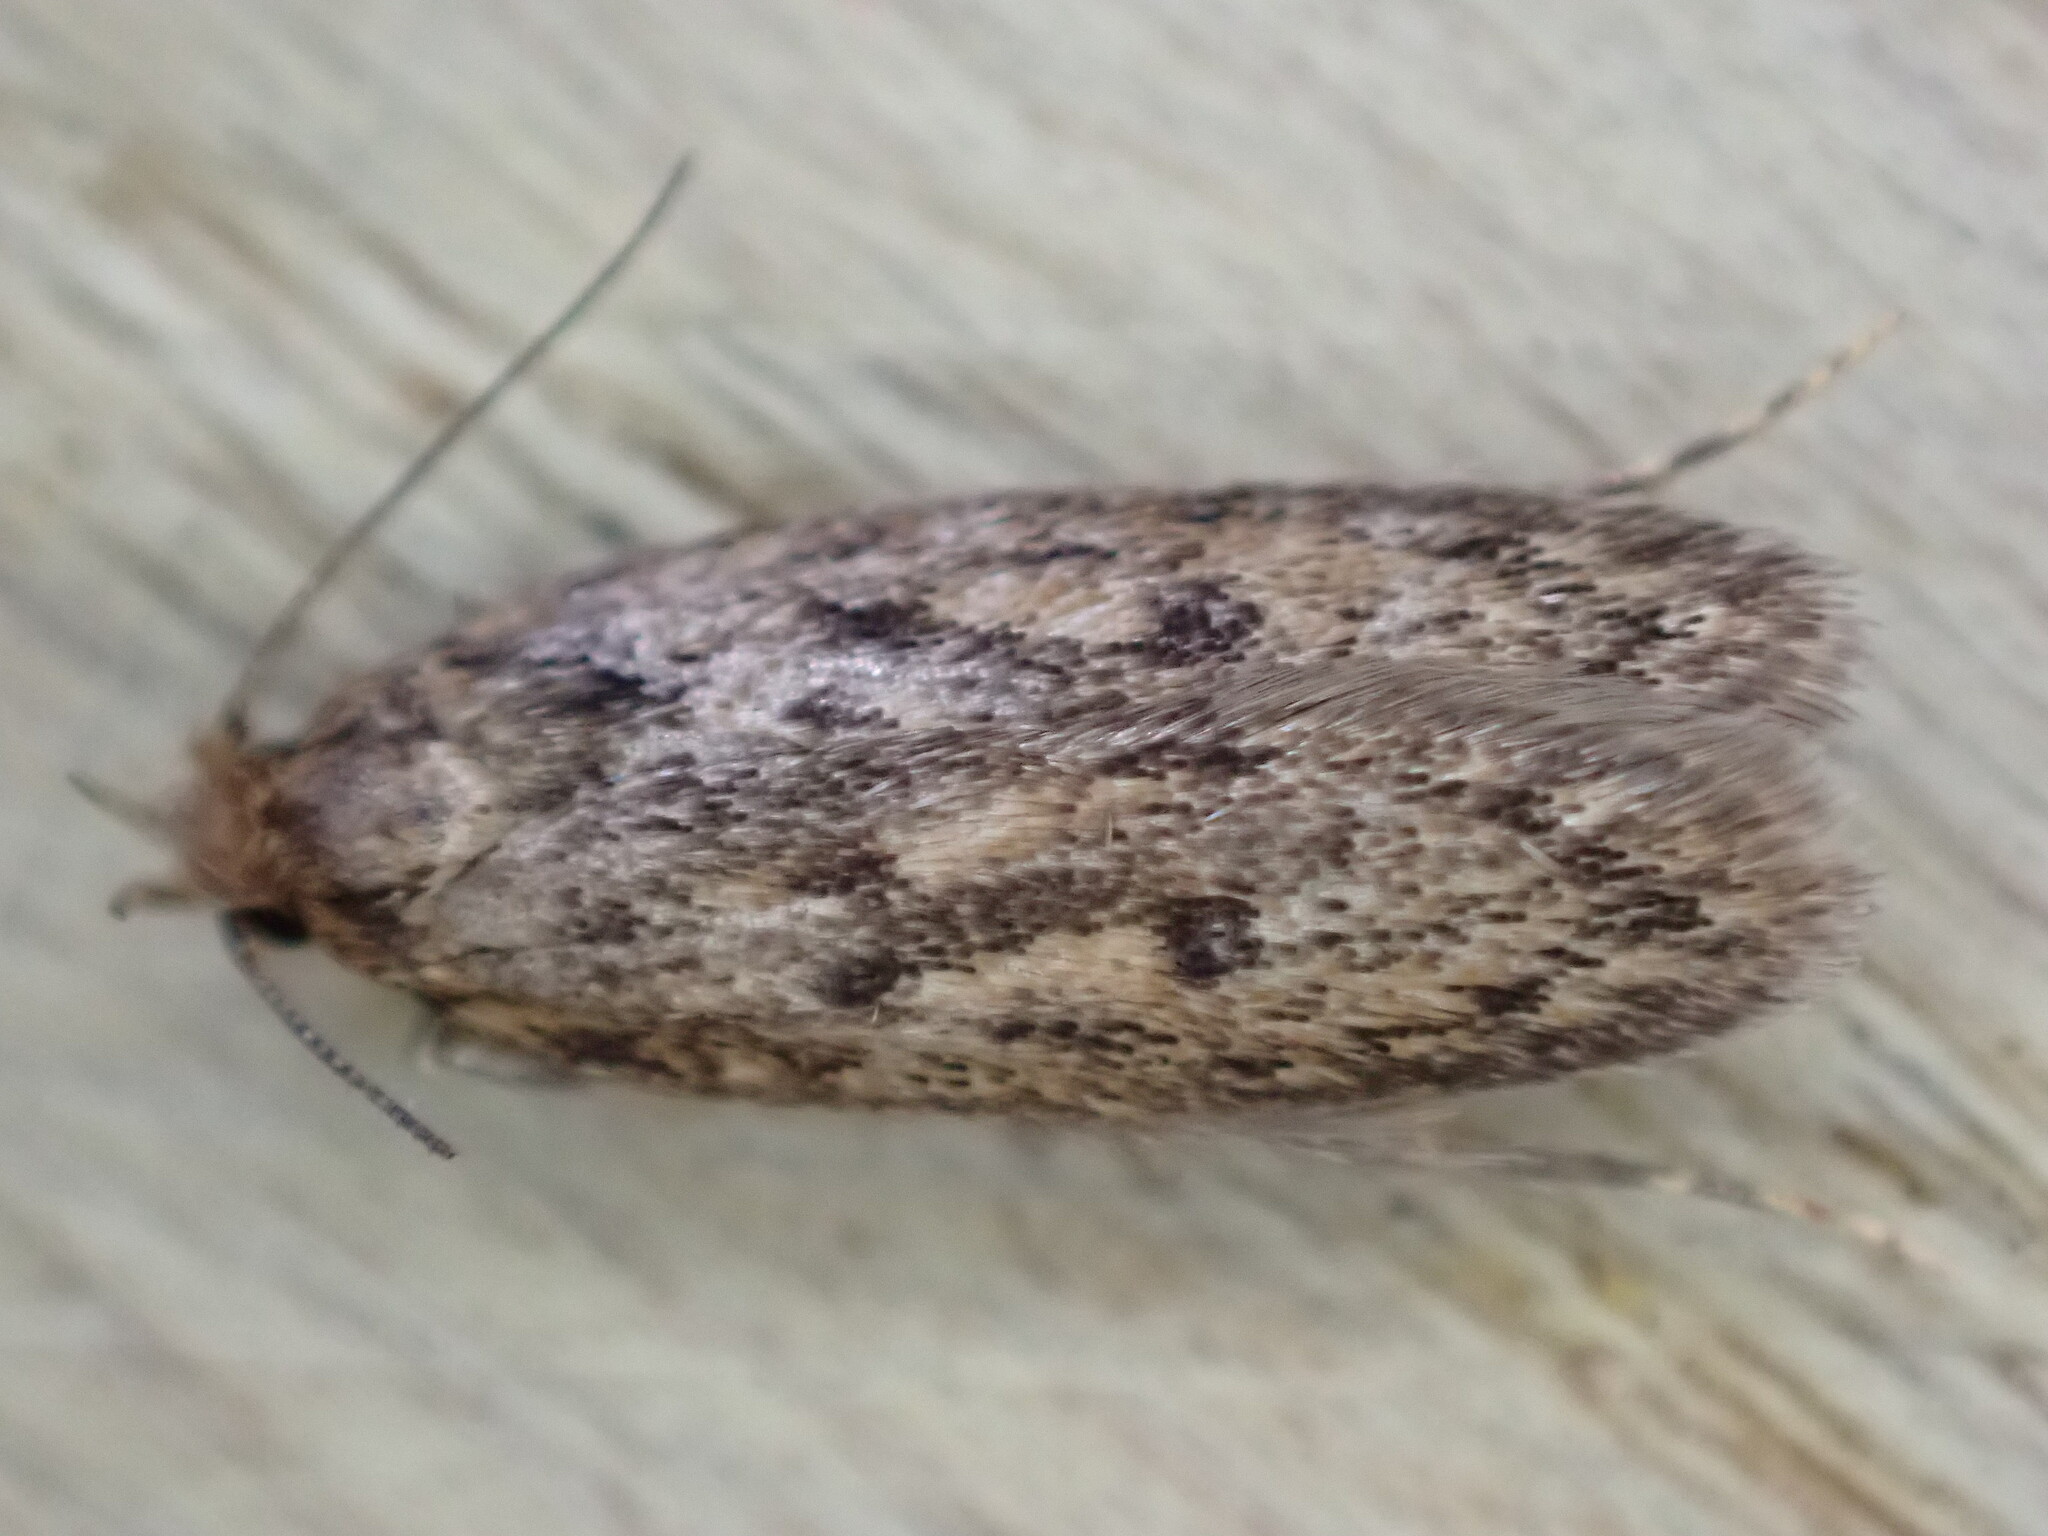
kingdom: Animalia
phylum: Arthropoda
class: Insecta
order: Lepidoptera
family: Oecophoridae
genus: Hofmannophila
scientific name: Hofmannophila pseudospretella
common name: Brown house moth
